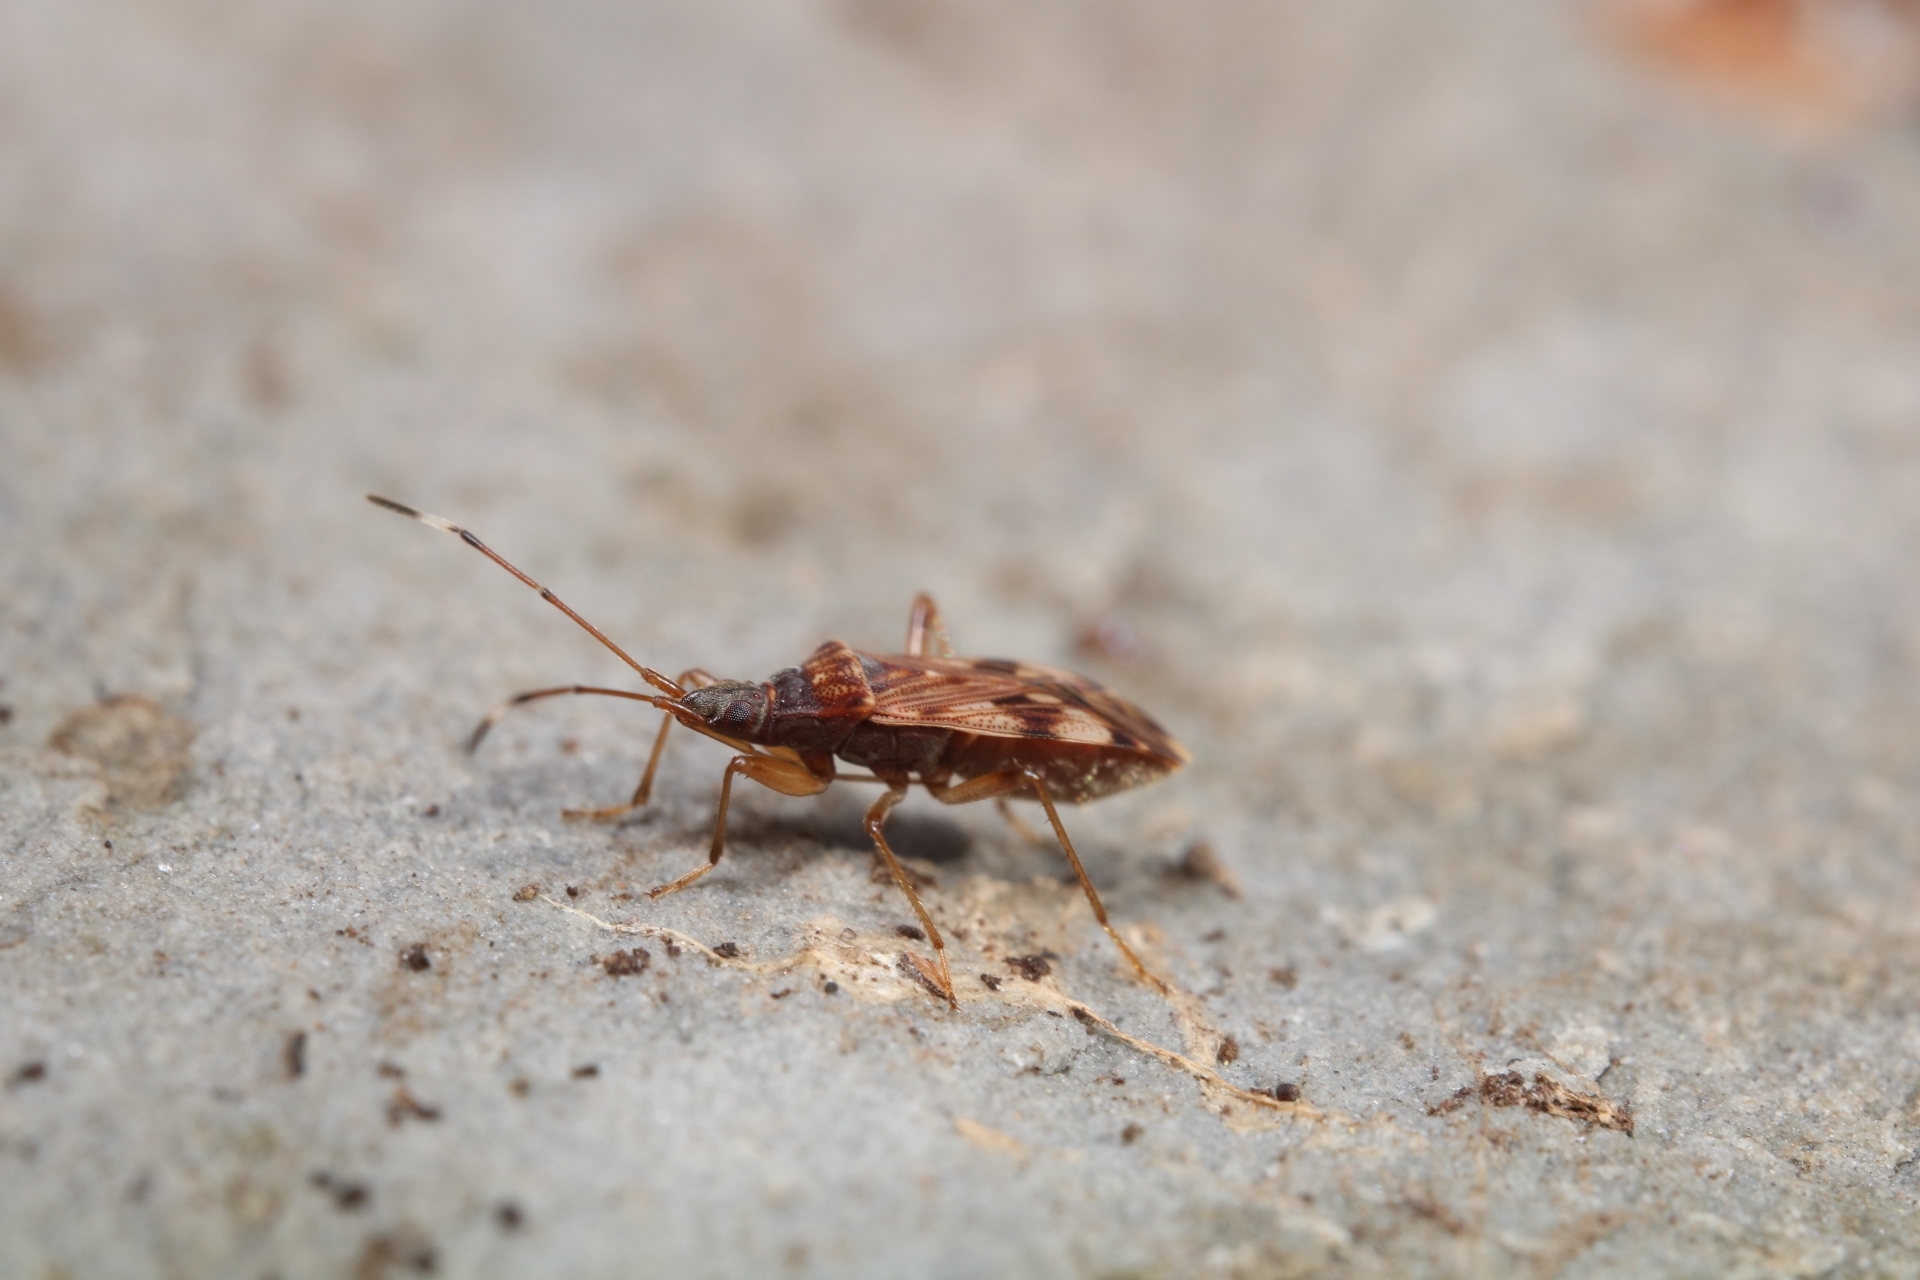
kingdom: Animalia
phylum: Arthropoda
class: Insecta
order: Hemiptera
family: Rhyparochromidae
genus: Ozophora
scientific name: Ozophora picturata
